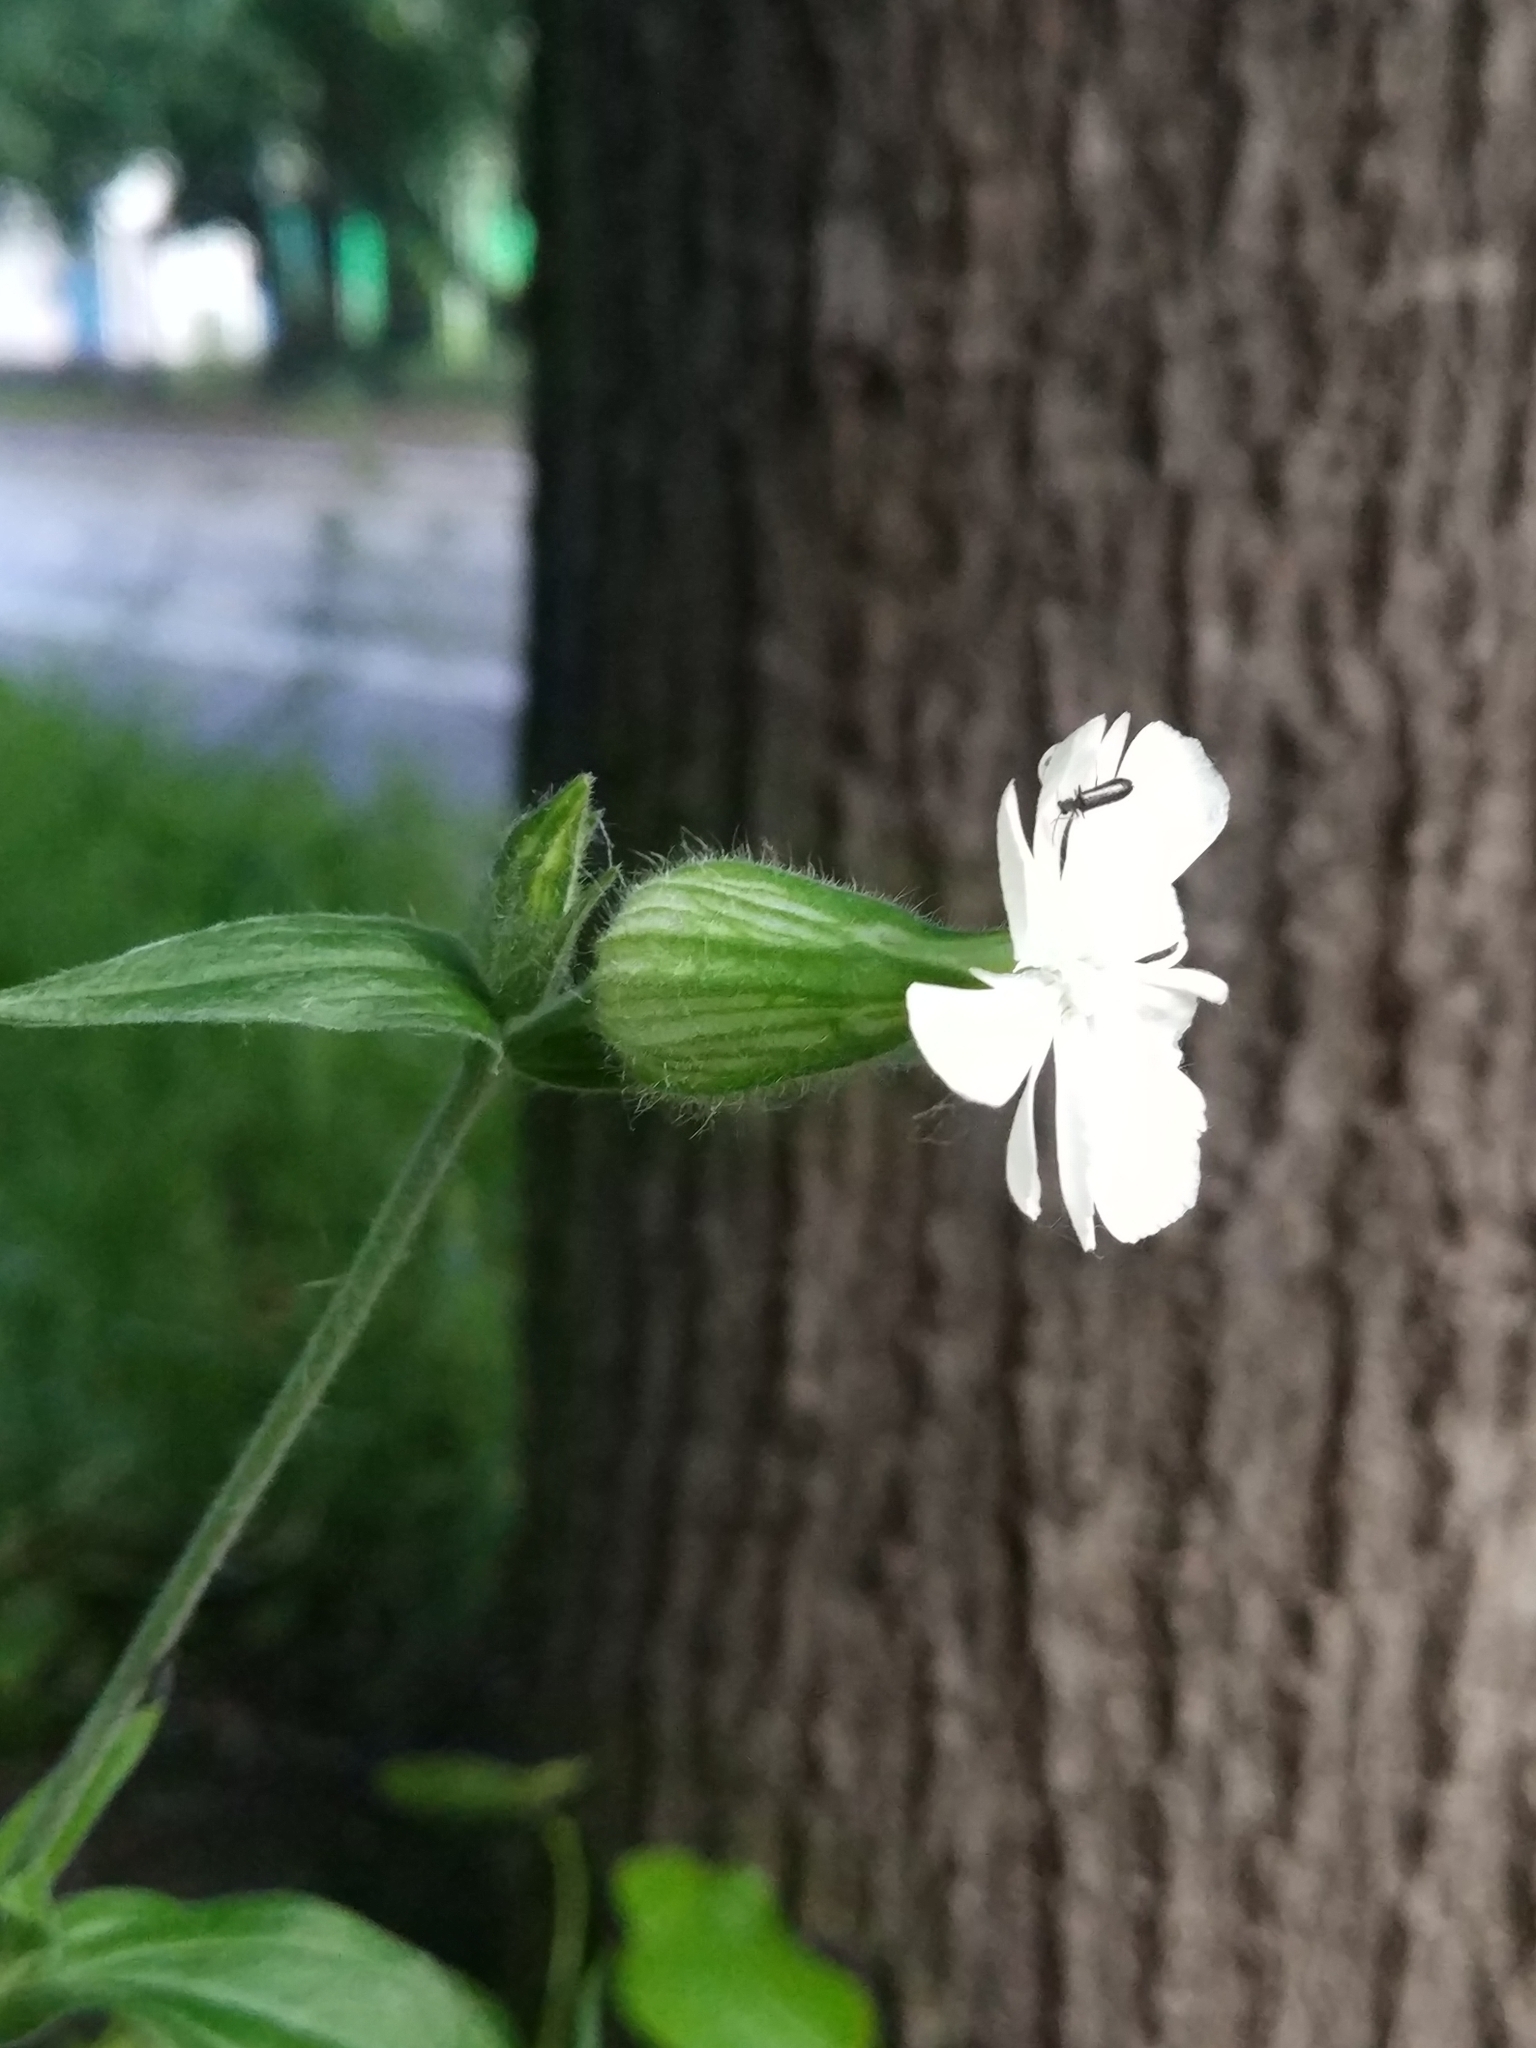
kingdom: Plantae
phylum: Tracheophyta
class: Magnoliopsida
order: Caryophyllales
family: Caryophyllaceae
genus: Silene
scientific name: Silene latifolia
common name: White campion
